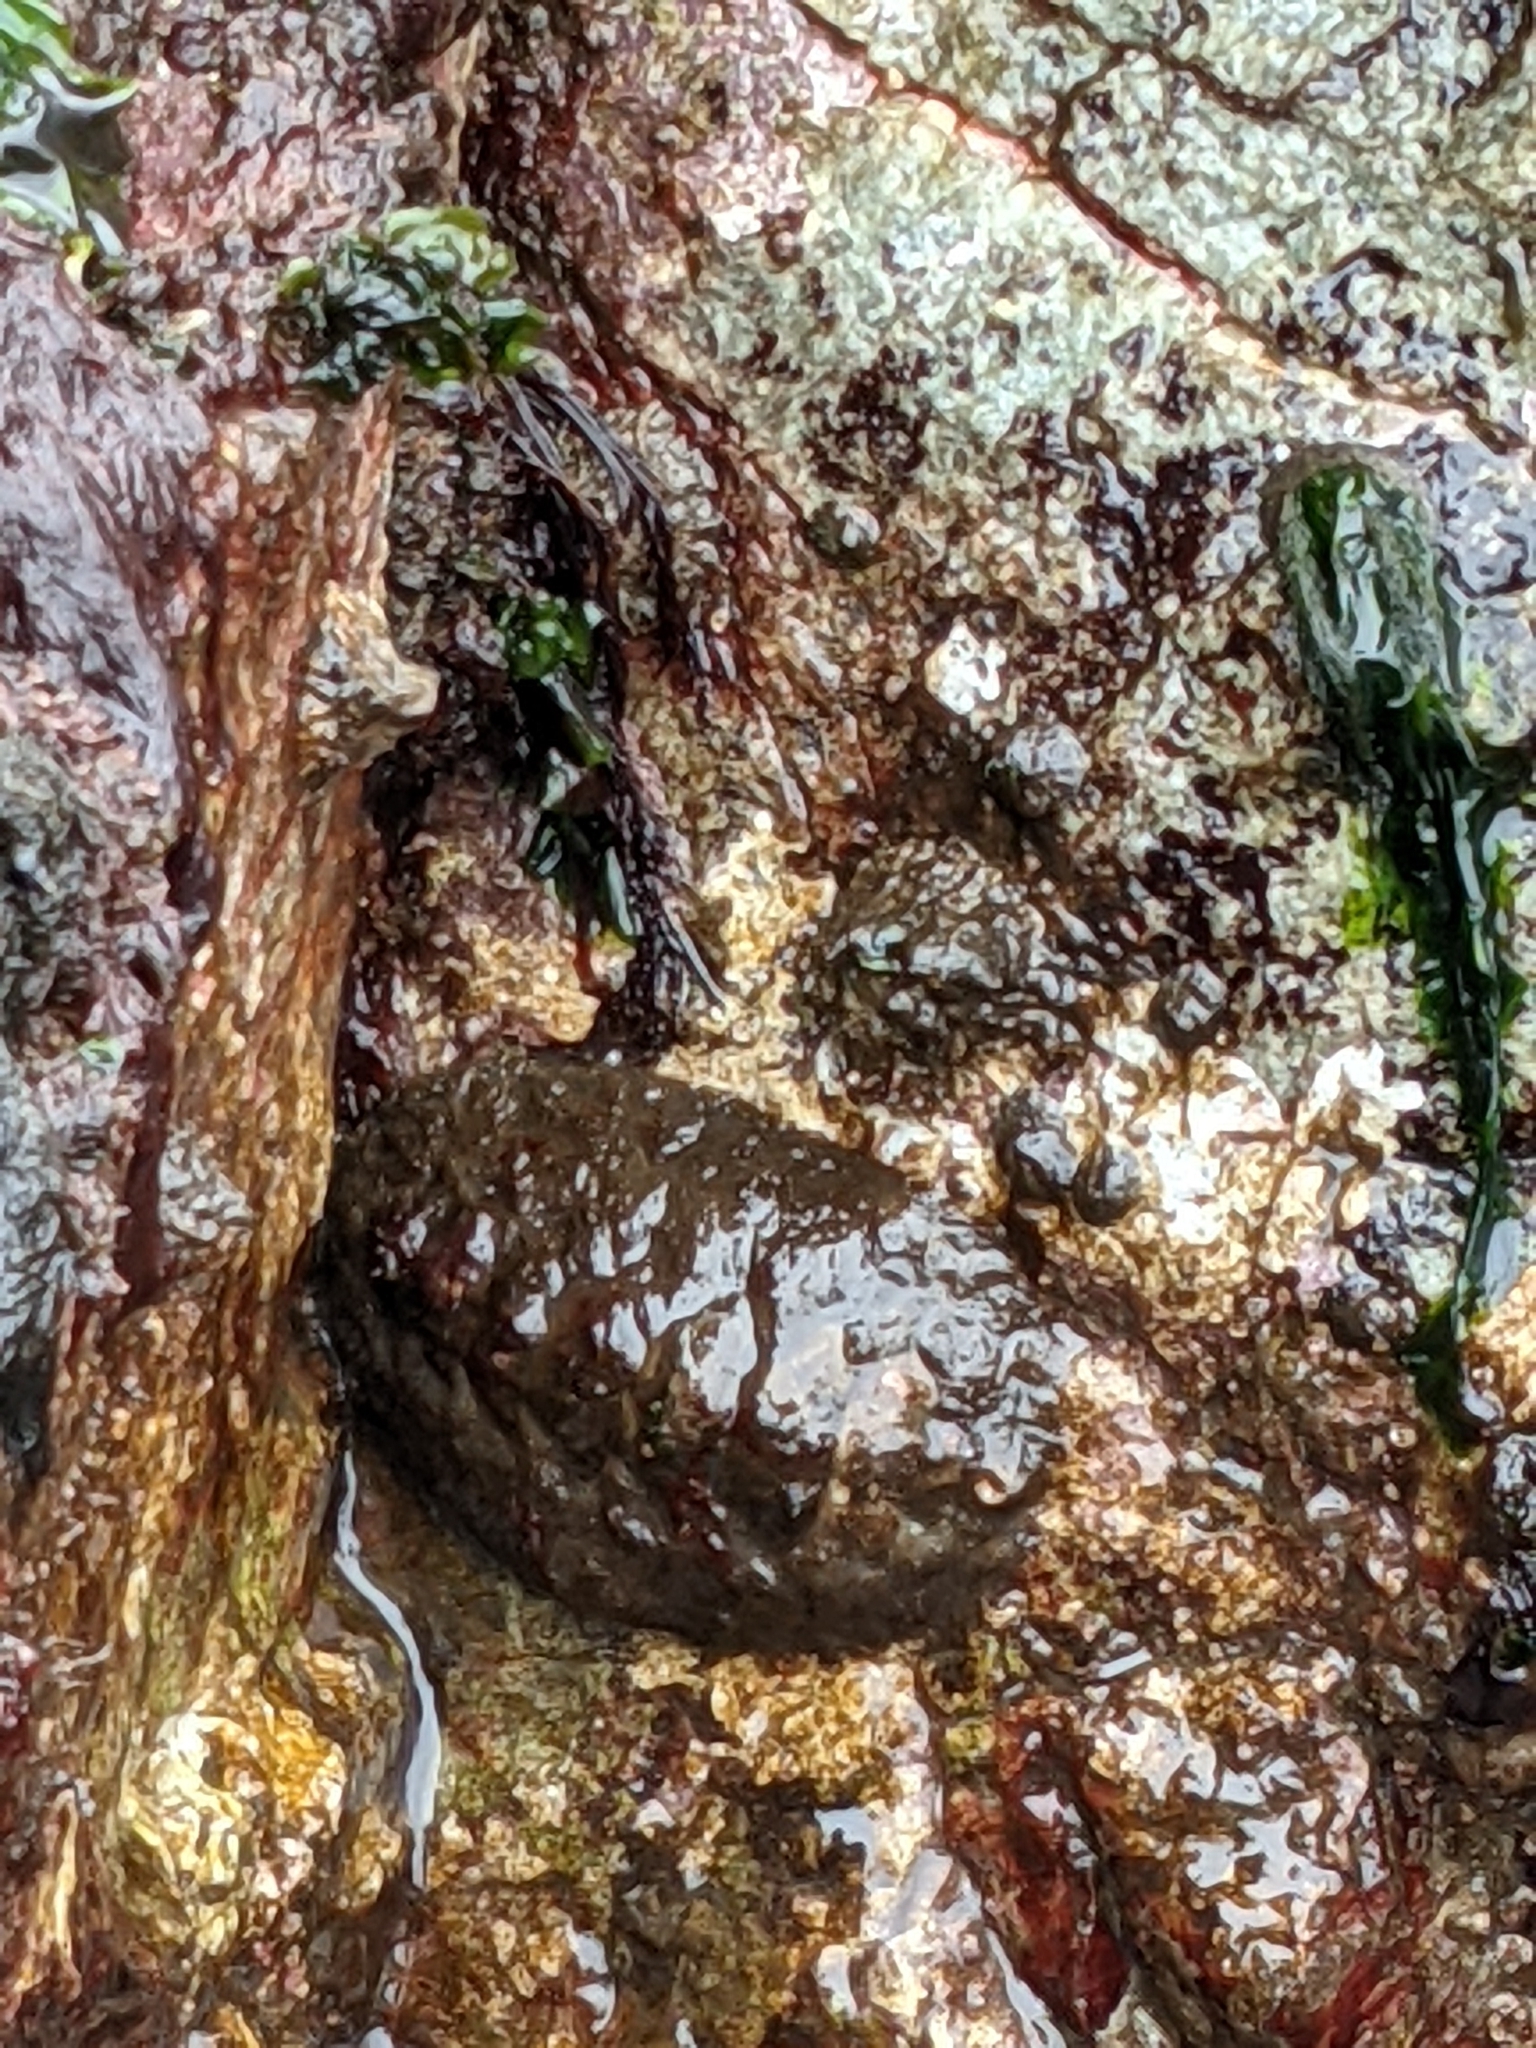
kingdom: Animalia
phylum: Mollusca
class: Polyplacophora
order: Chitonida
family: Mopaliidae
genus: Katharina
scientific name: Katharina tunicata
